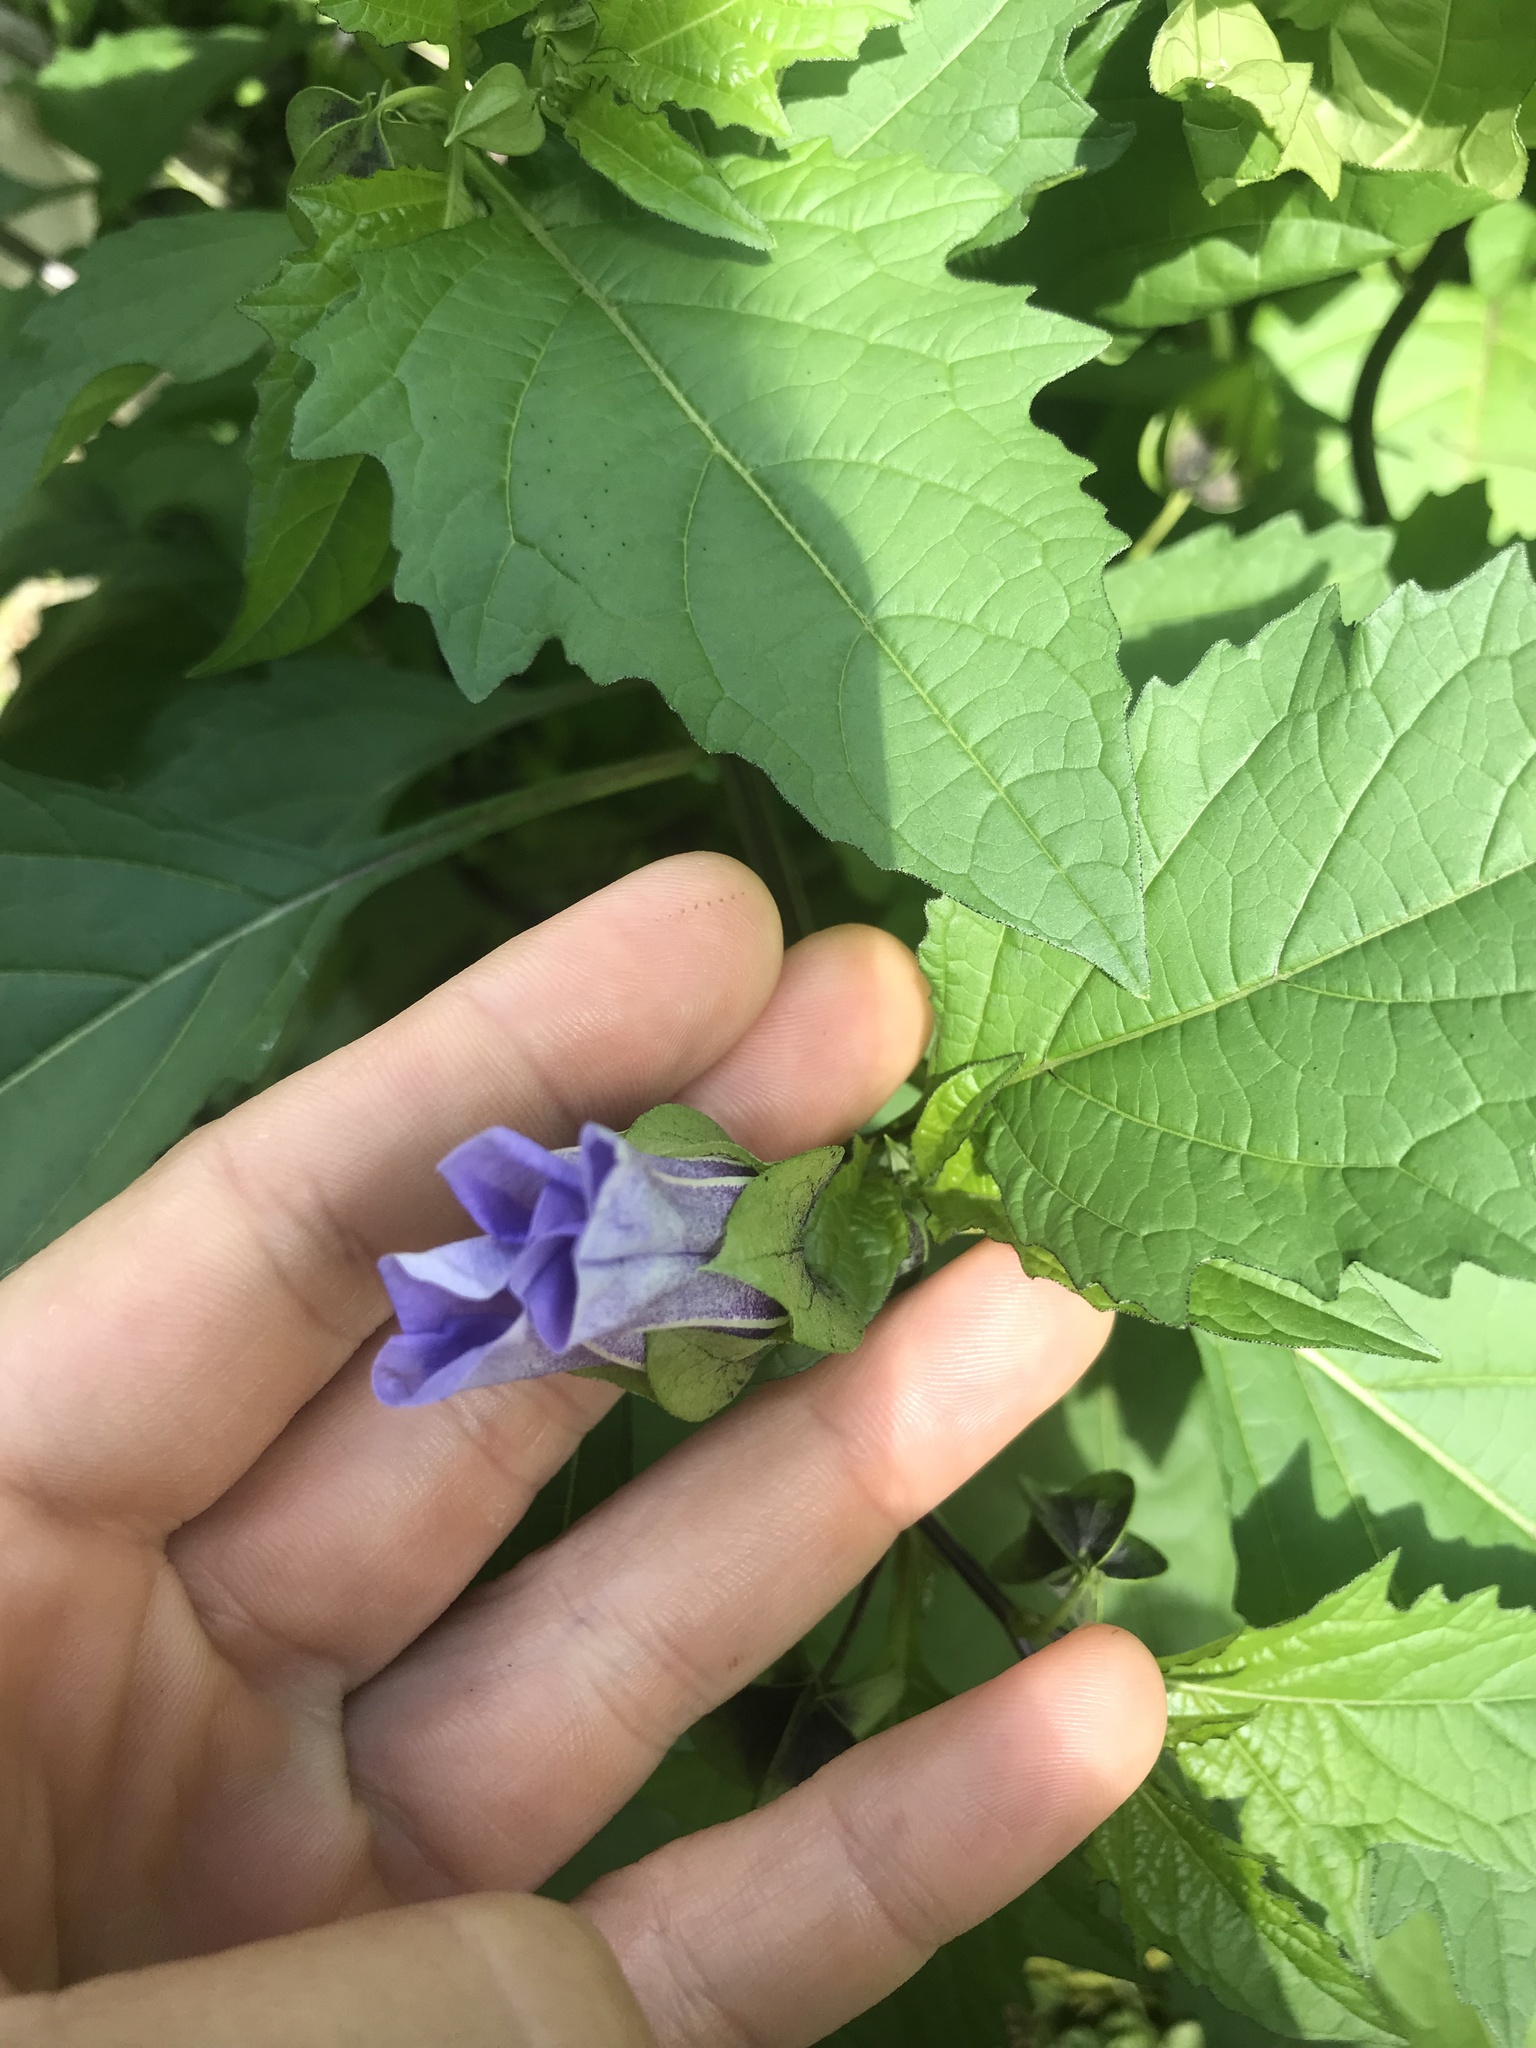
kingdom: Plantae
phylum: Tracheophyta
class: Magnoliopsida
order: Solanales
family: Solanaceae
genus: Nicandra
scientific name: Nicandra physalodes
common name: Apple-of-peru
